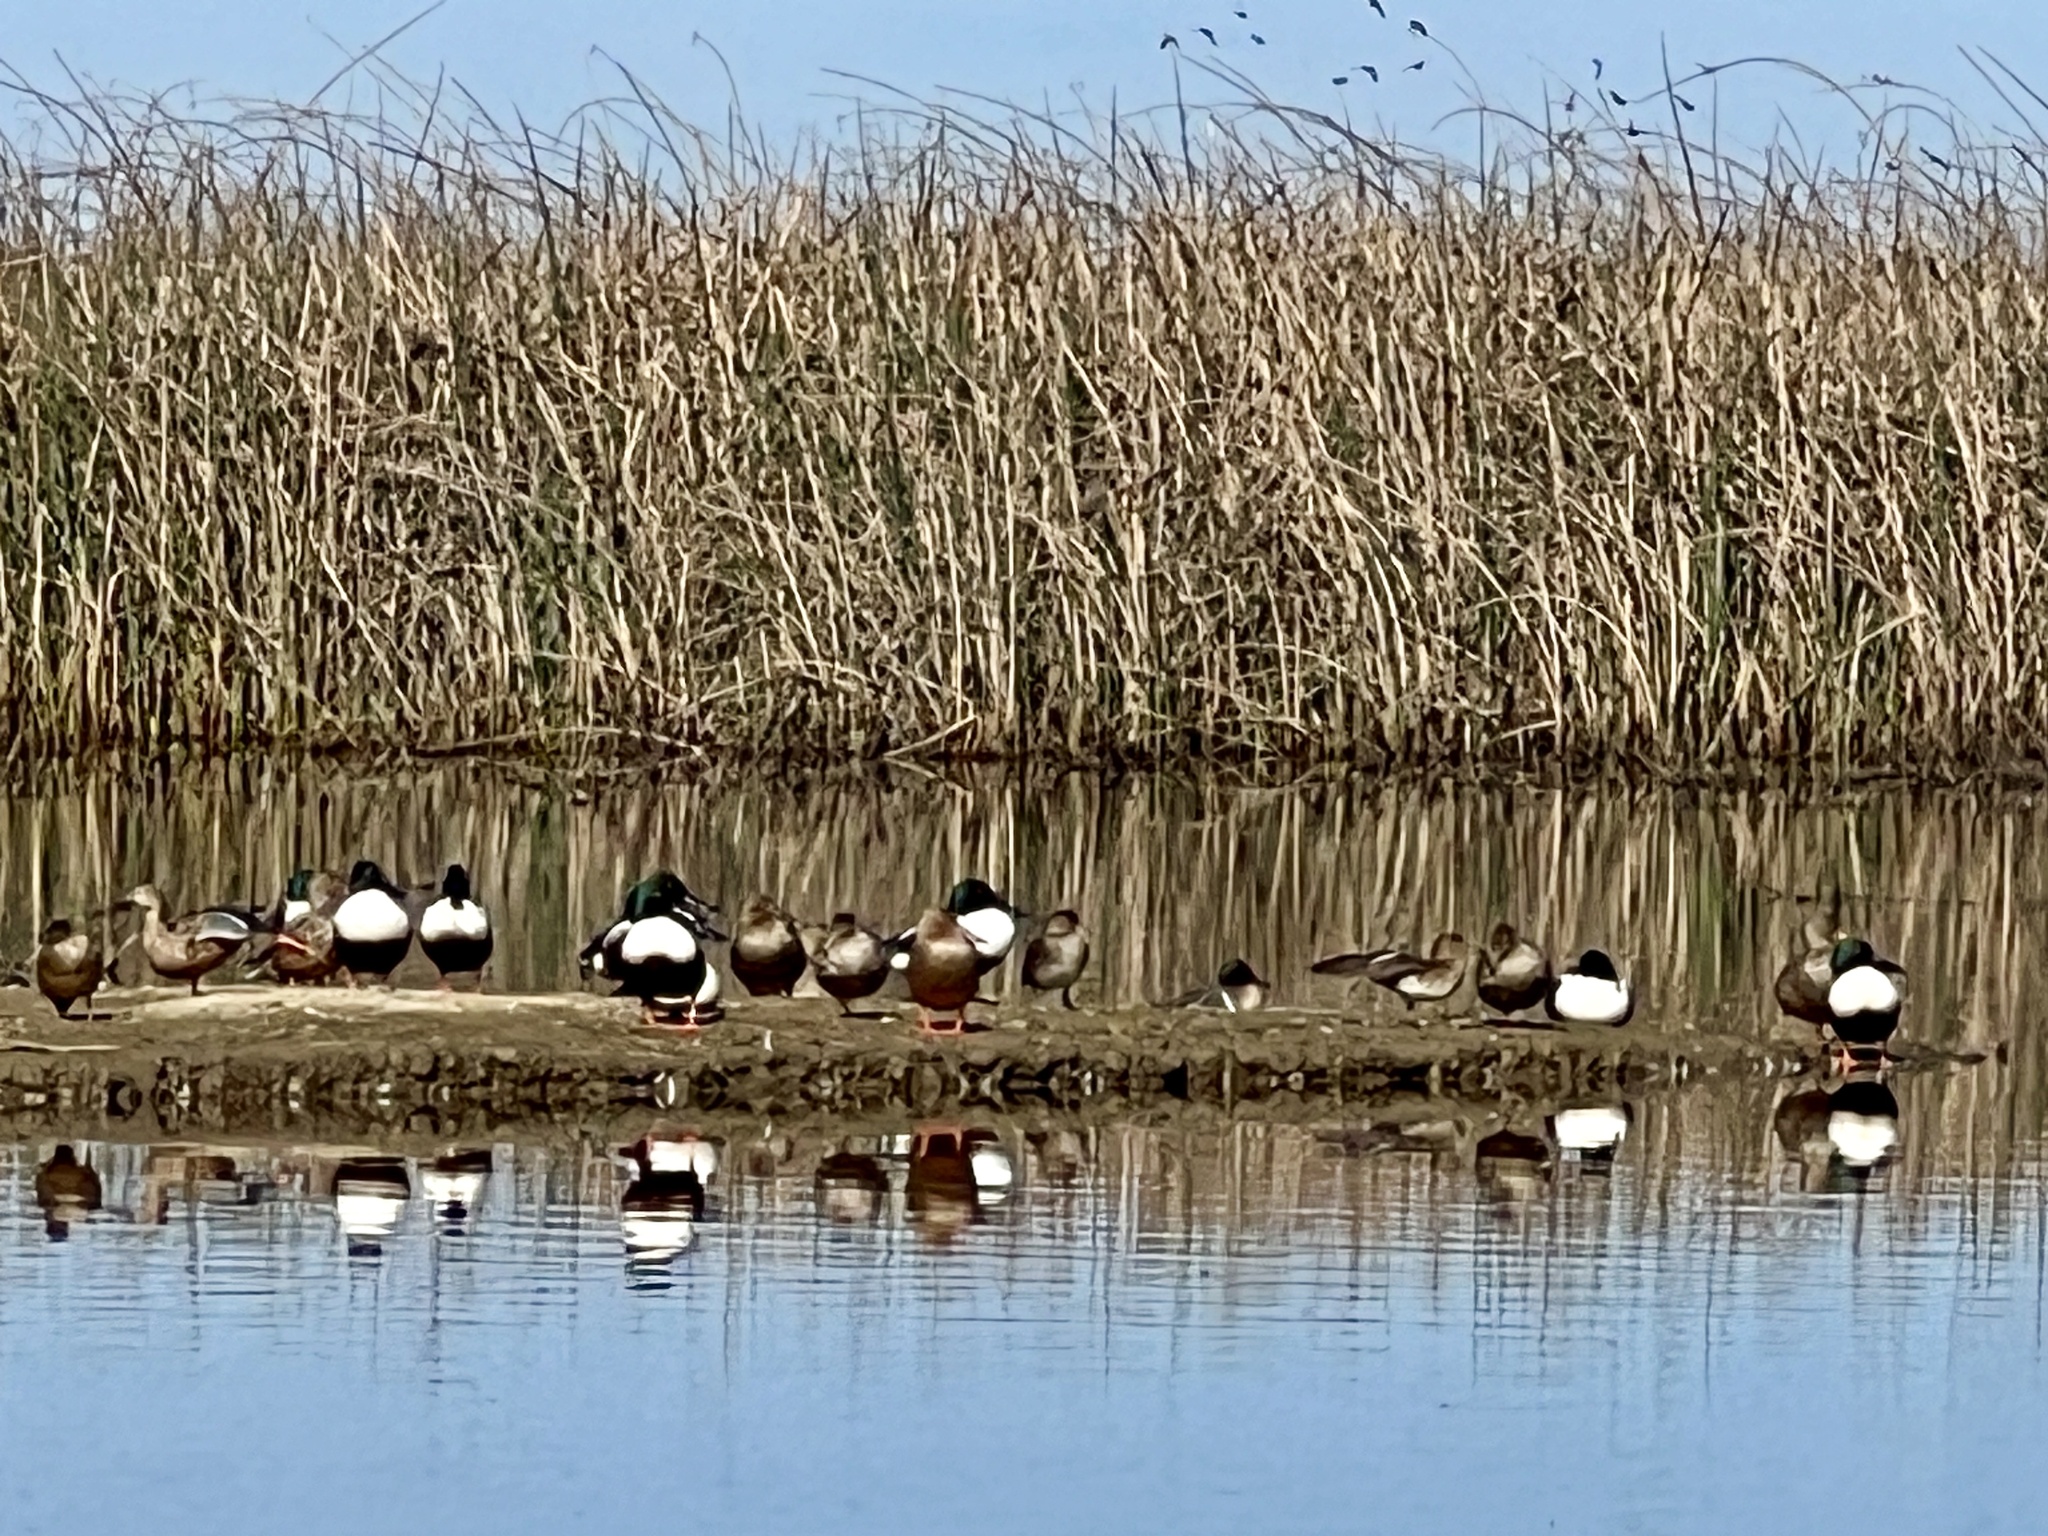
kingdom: Animalia
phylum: Chordata
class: Aves
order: Anseriformes
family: Anatidae
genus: Spatula
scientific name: Spatula clypeata
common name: Northern shoveler
